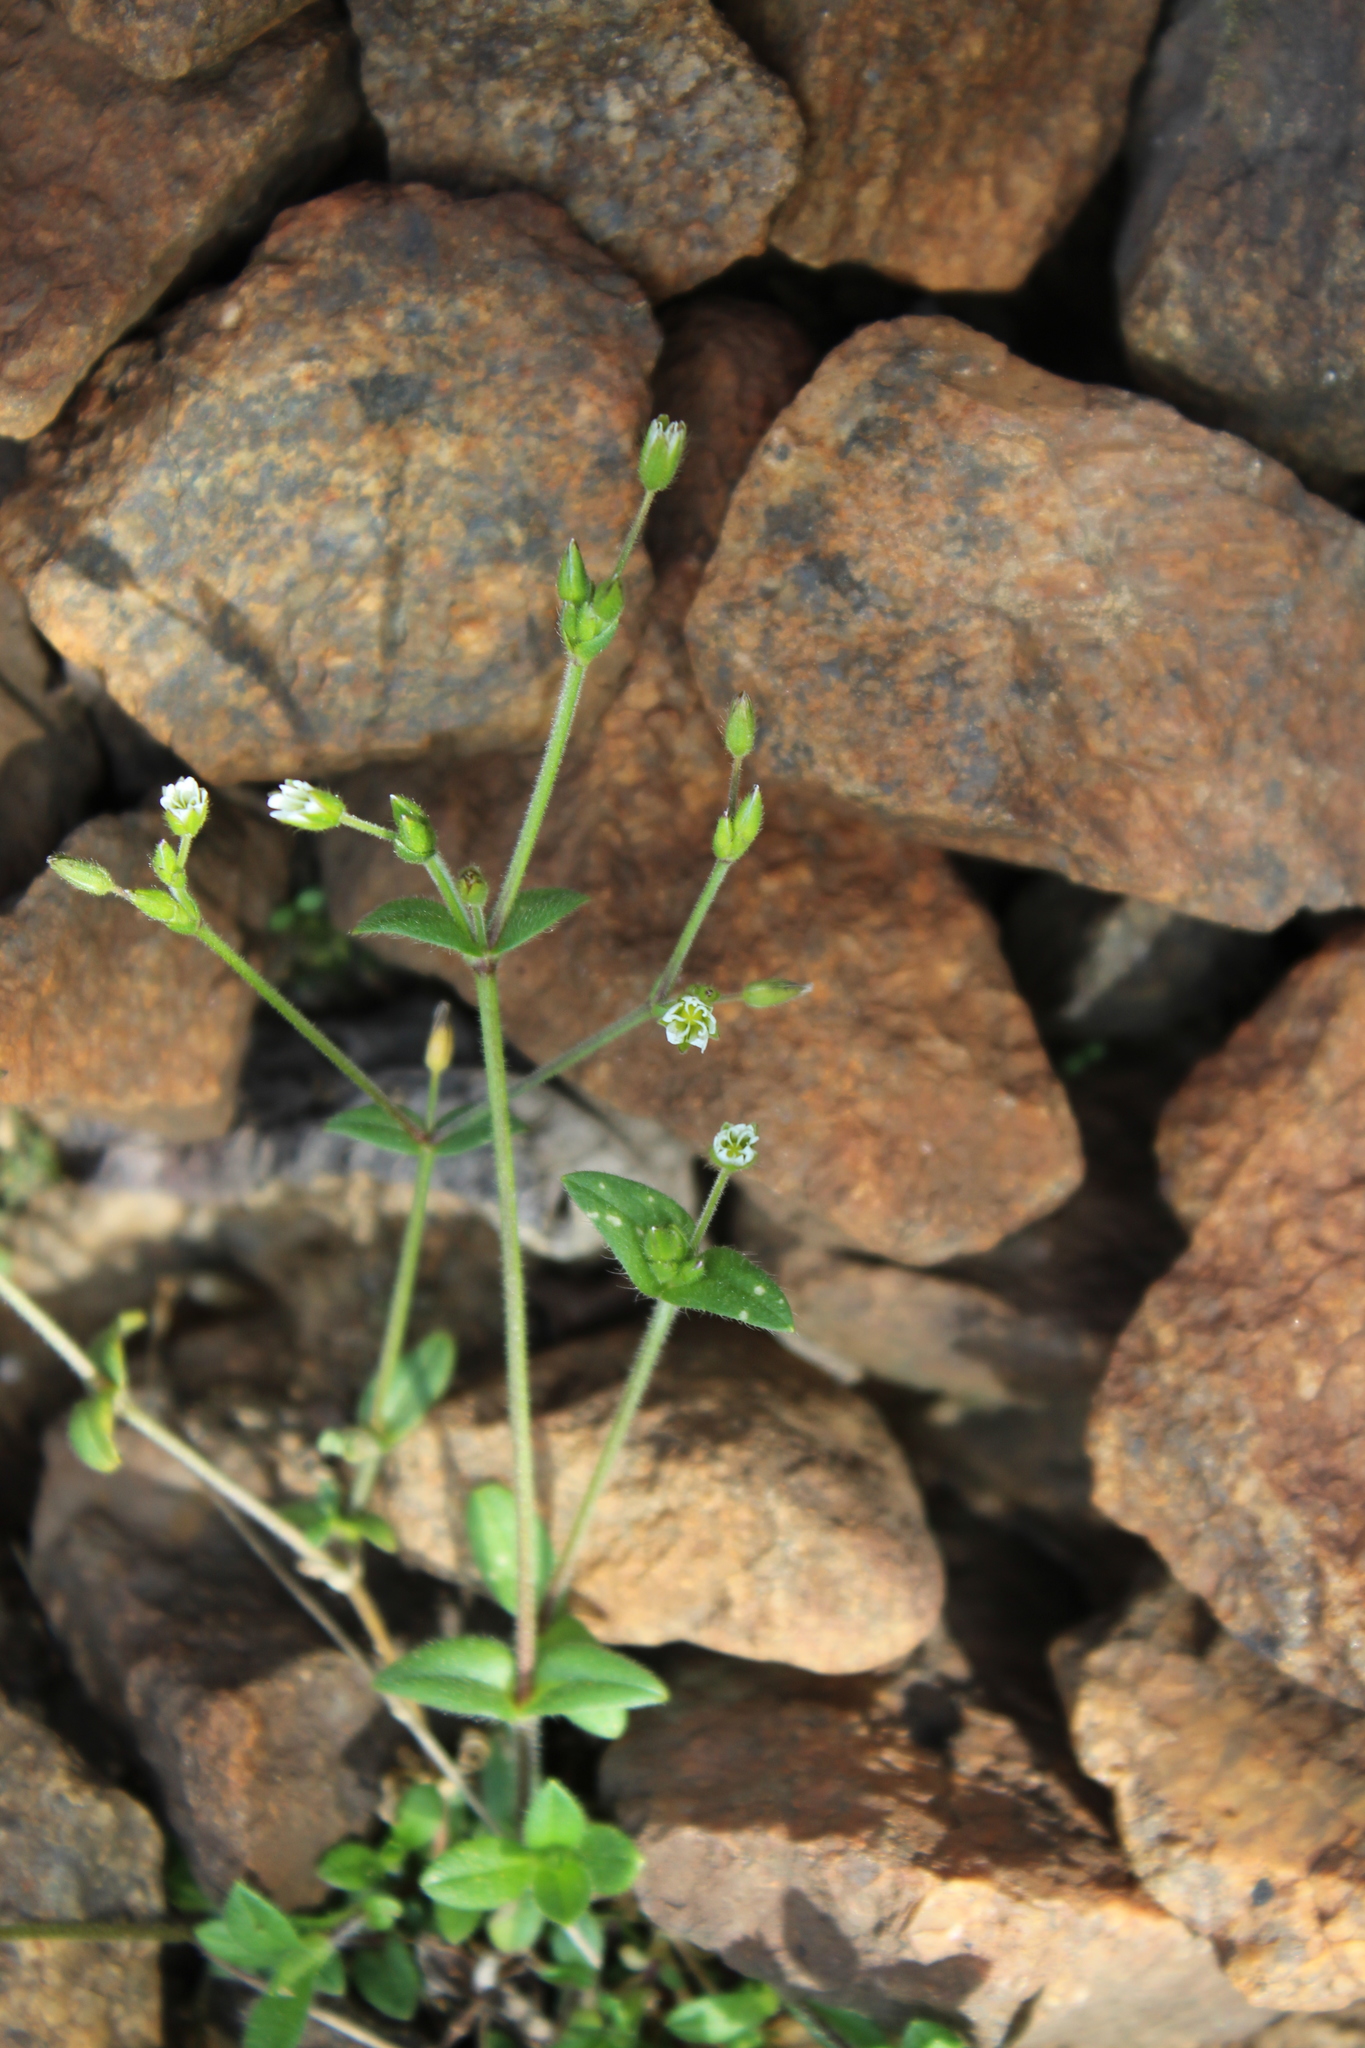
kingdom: Plantae
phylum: Tracheophyta
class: Magnoliopsida
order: Caryophyllales
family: Caryophyllaceae
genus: Cerastium
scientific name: Cerastium holosteoides
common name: Big chickweed
